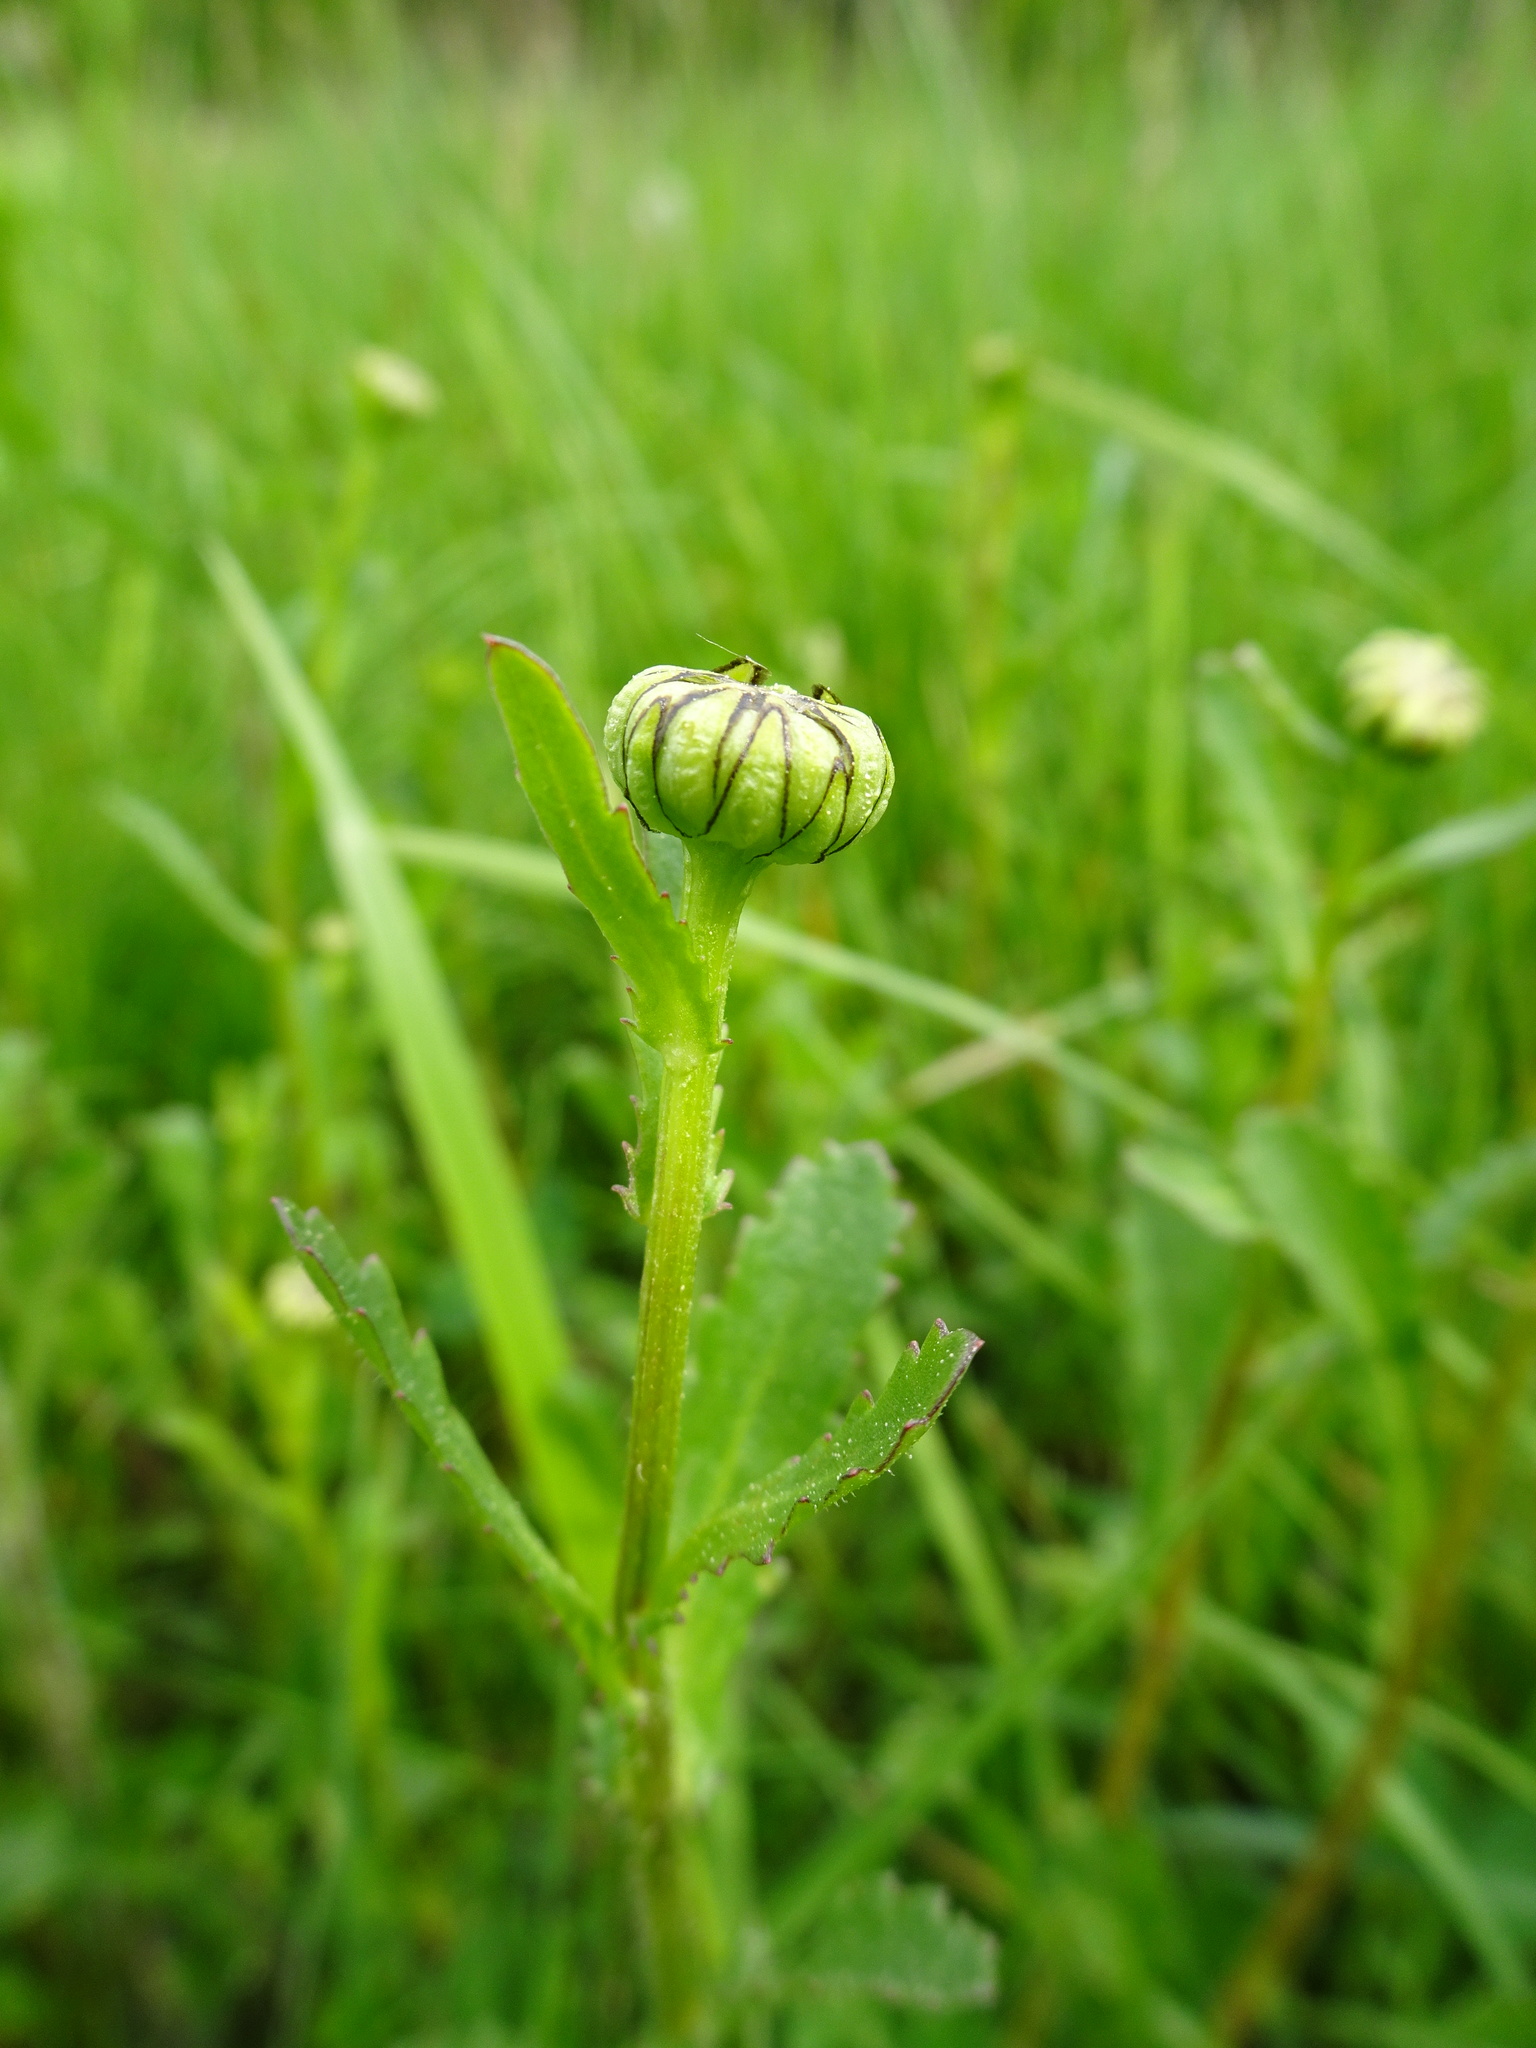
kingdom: Plantae
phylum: Tracheophyta
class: Magnoliopsida
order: Asterales
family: Asteraceae
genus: Leucanthemum
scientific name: Leucanthemum vulgare
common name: Oxeye daisy
